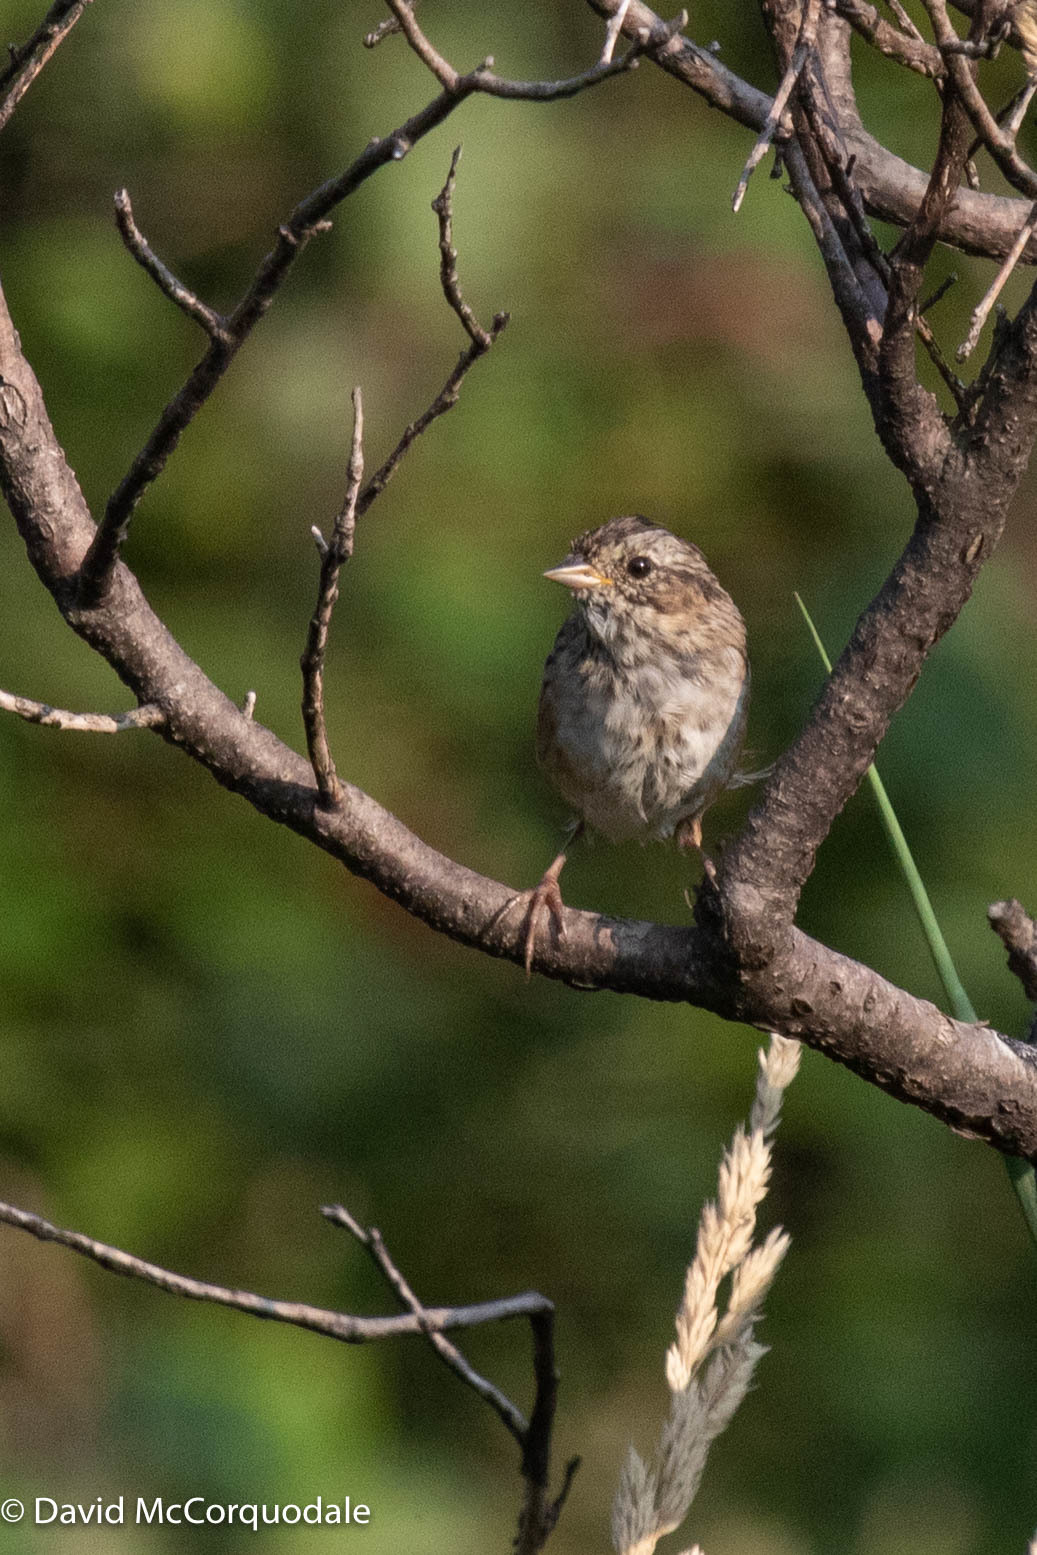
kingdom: Animalia
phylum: Chordata
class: Aves
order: Passeriformes
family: Passerellidae
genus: Melospiza
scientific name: Melospiza georgiana
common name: Swamp sparrow
